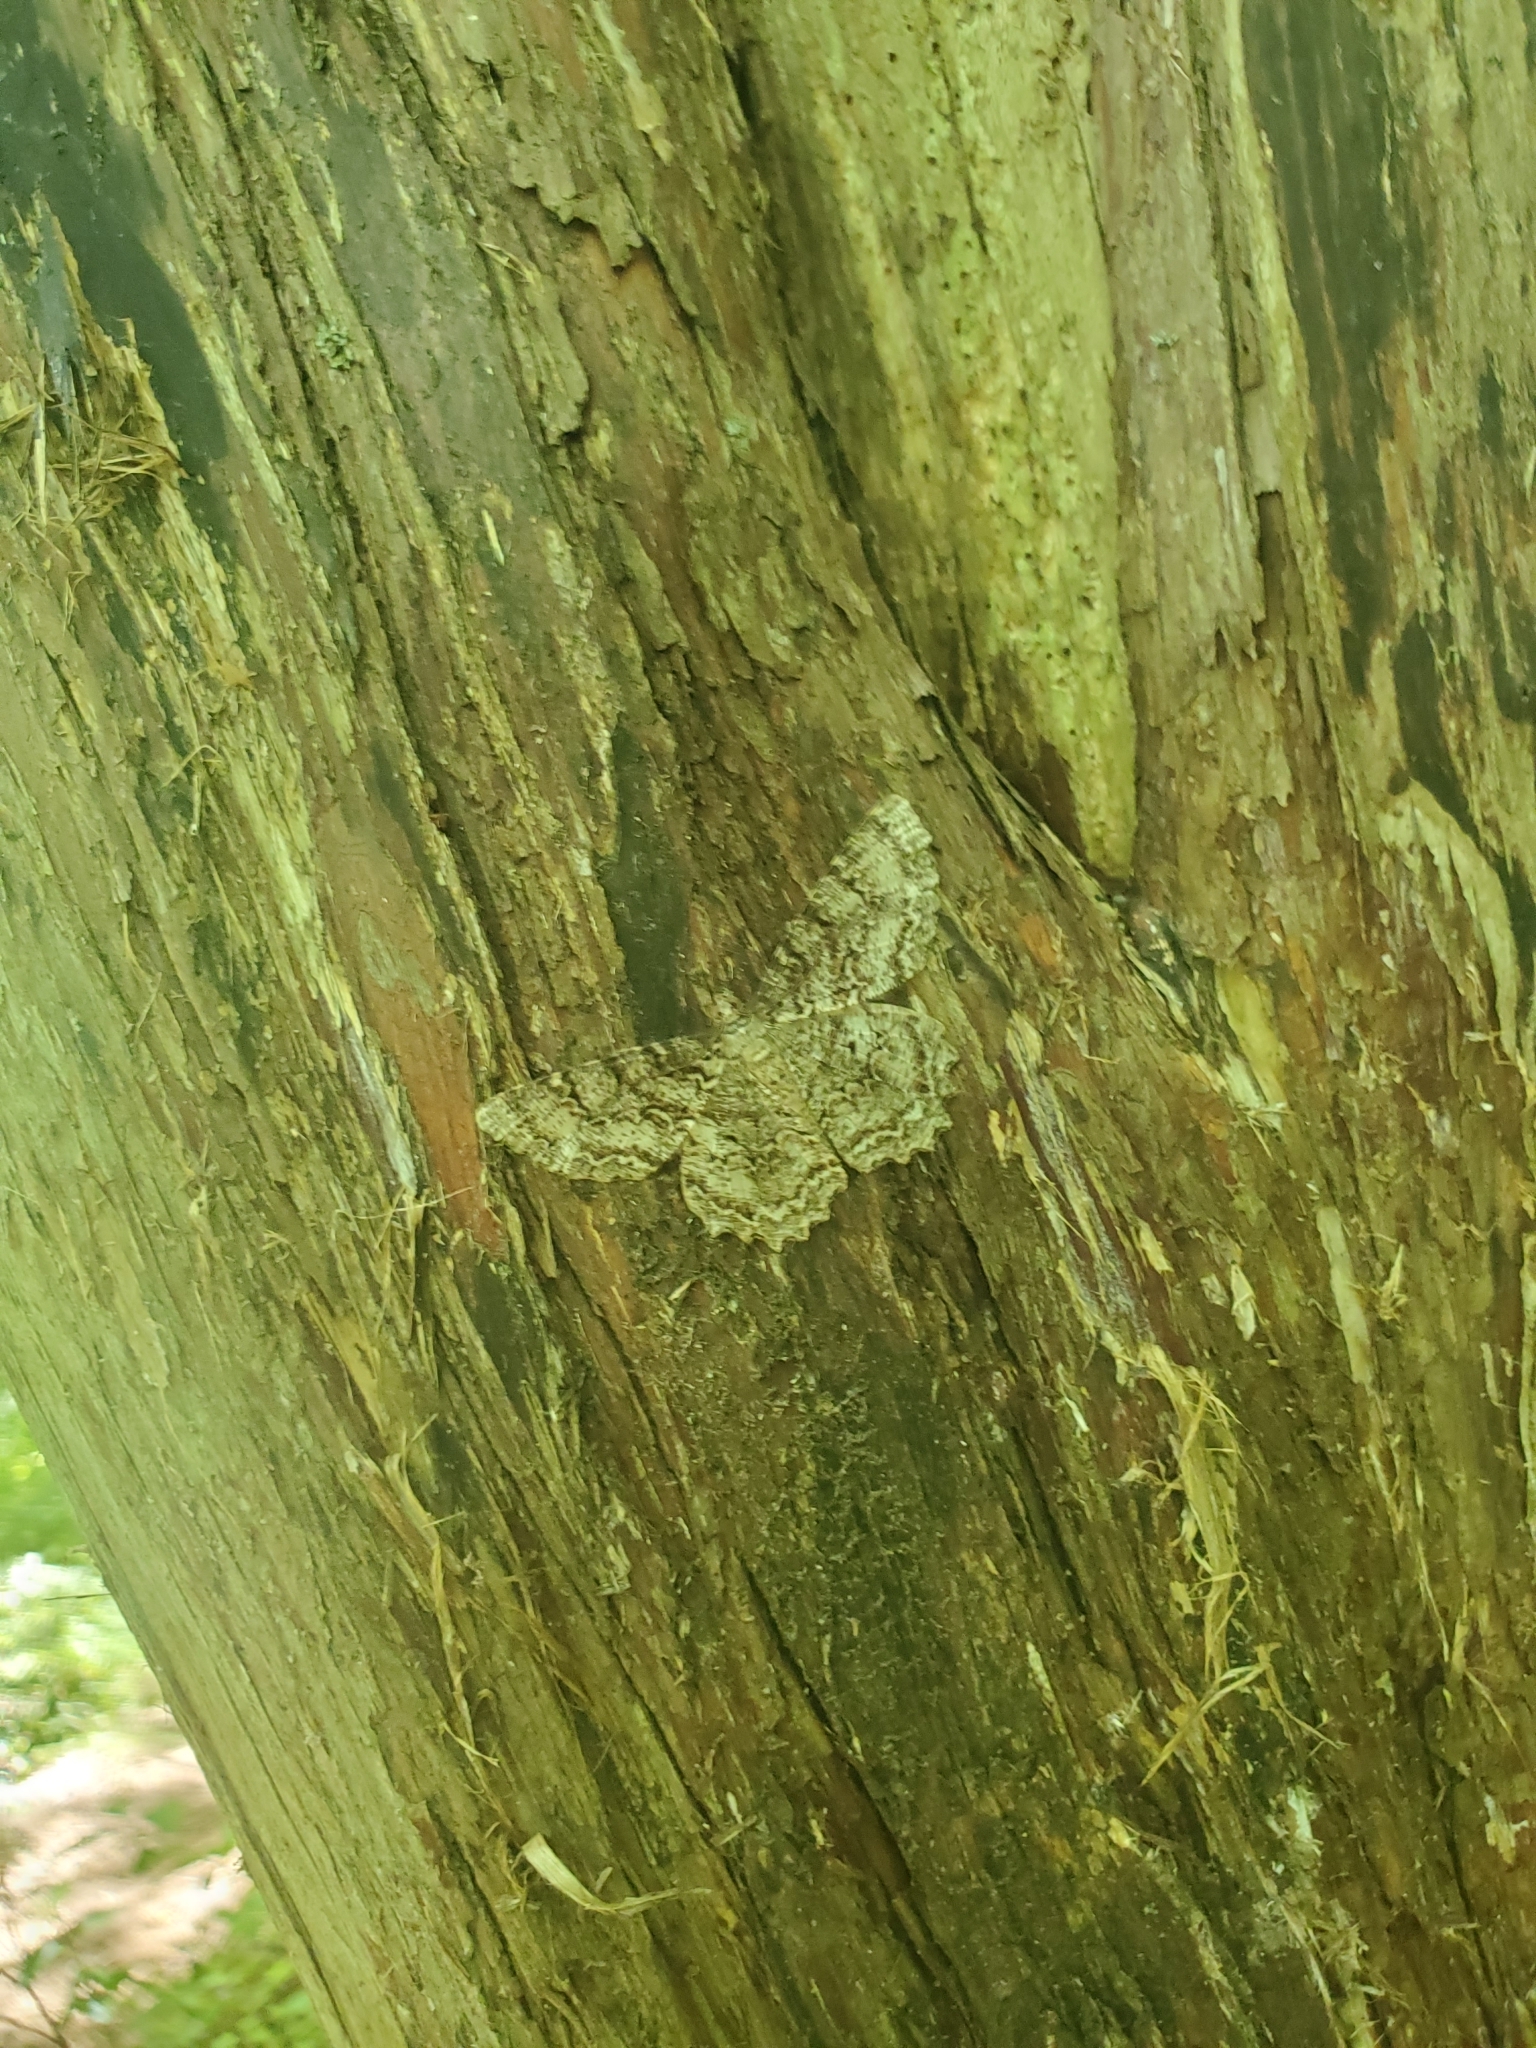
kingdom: Animalia
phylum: Arthropoda
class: Insecta
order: Lepidoptera
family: Geometridae
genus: Epimecis
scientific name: Epimecis hortaria
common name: Tulip-tree beauty
